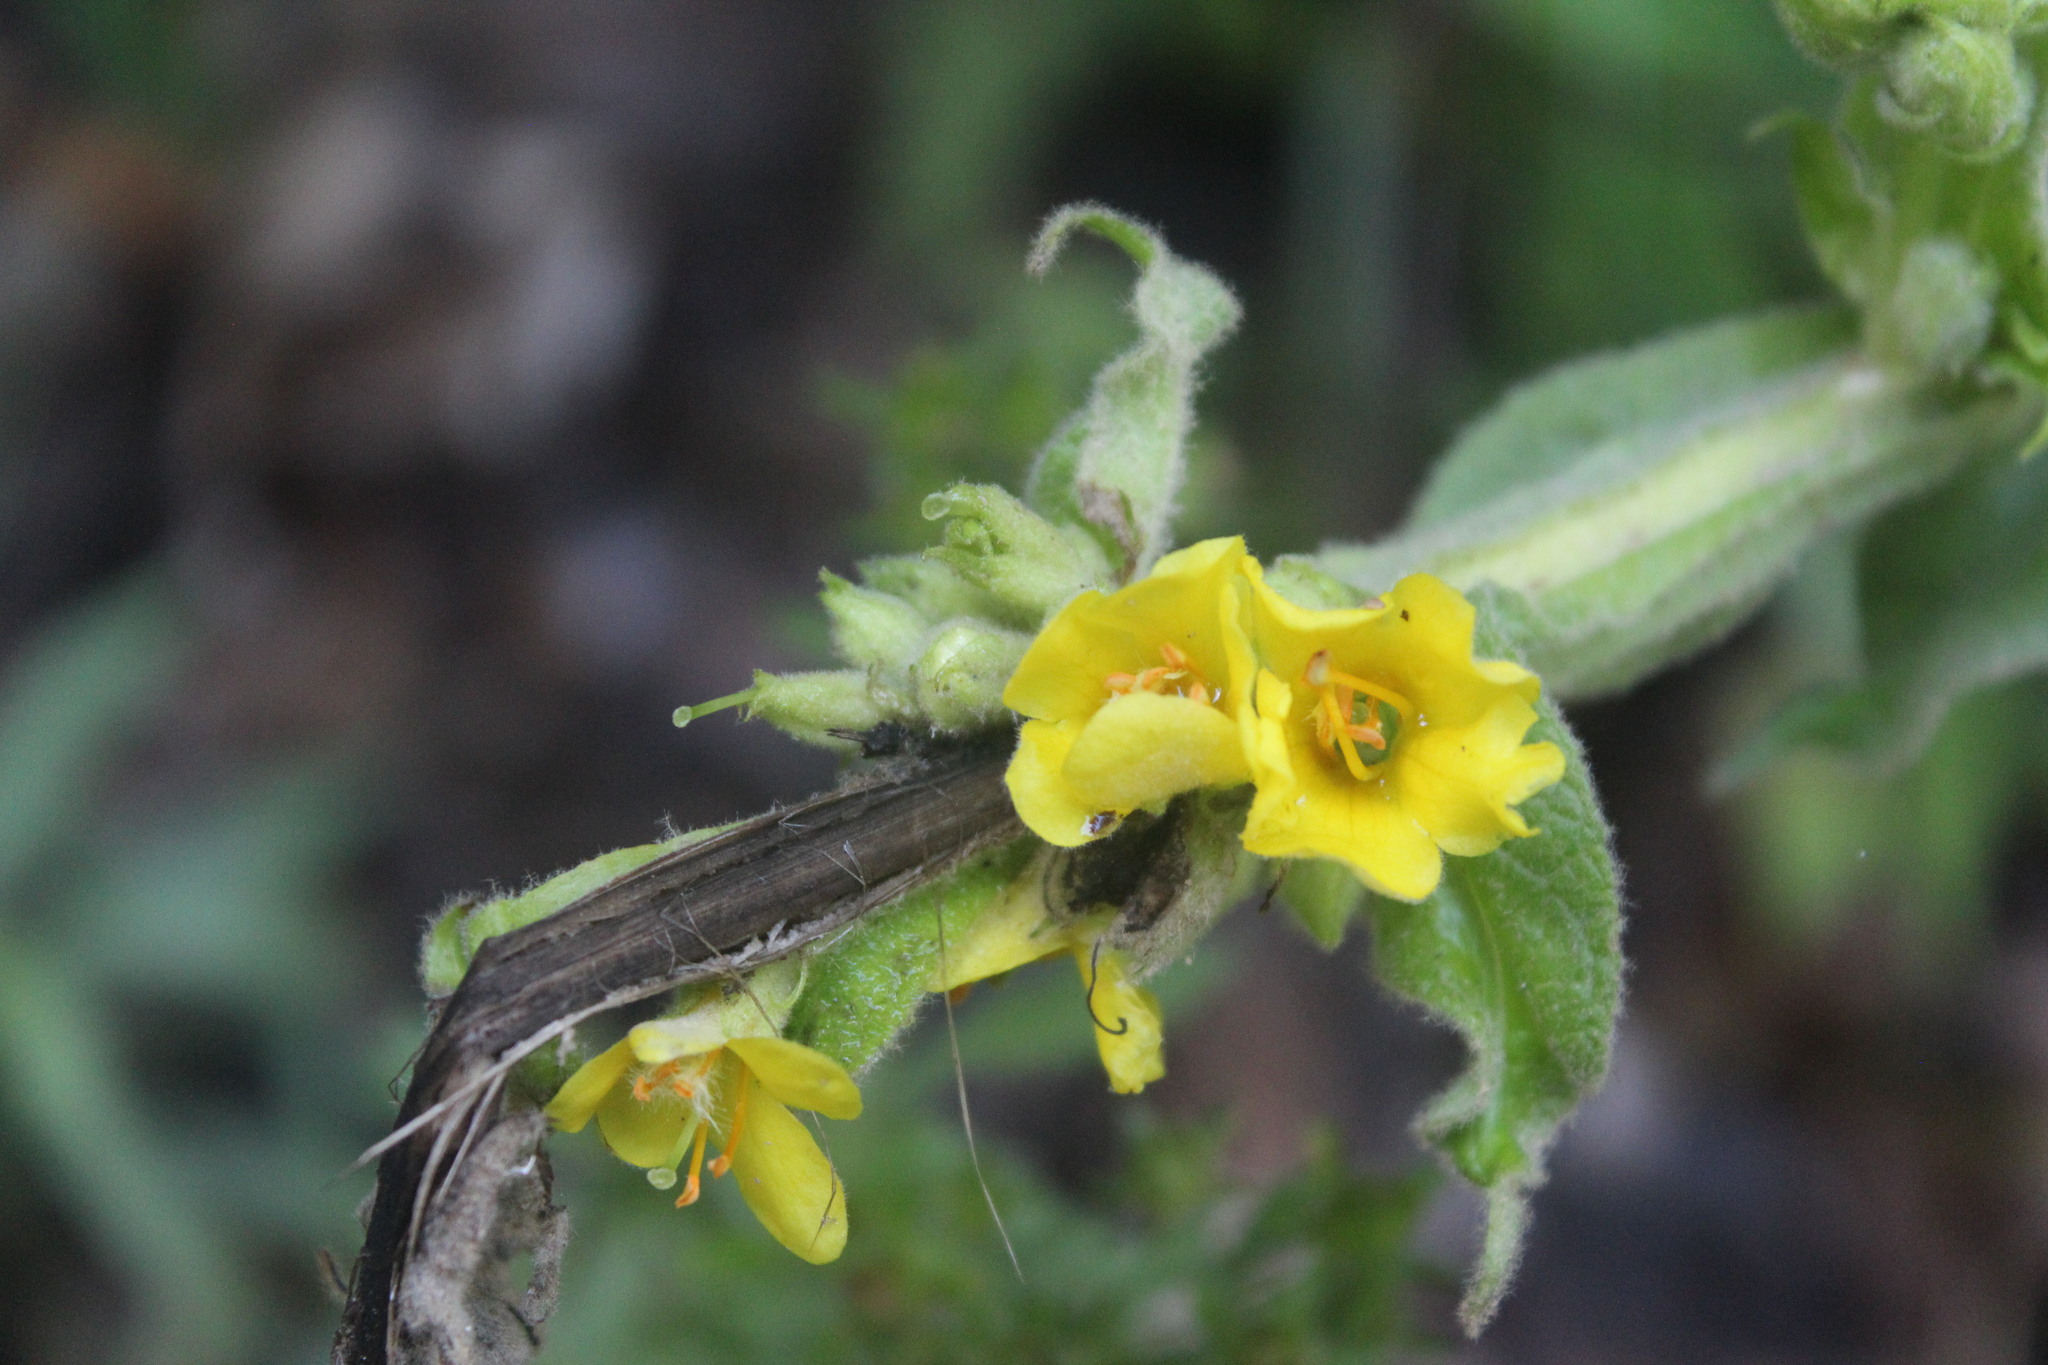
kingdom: Plantae
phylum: Tracheophyta
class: Magnoliopsida
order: Lamiales
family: Scrophulariaceae
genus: Verbascum
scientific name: Verbascum thapsus
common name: Common mullein
